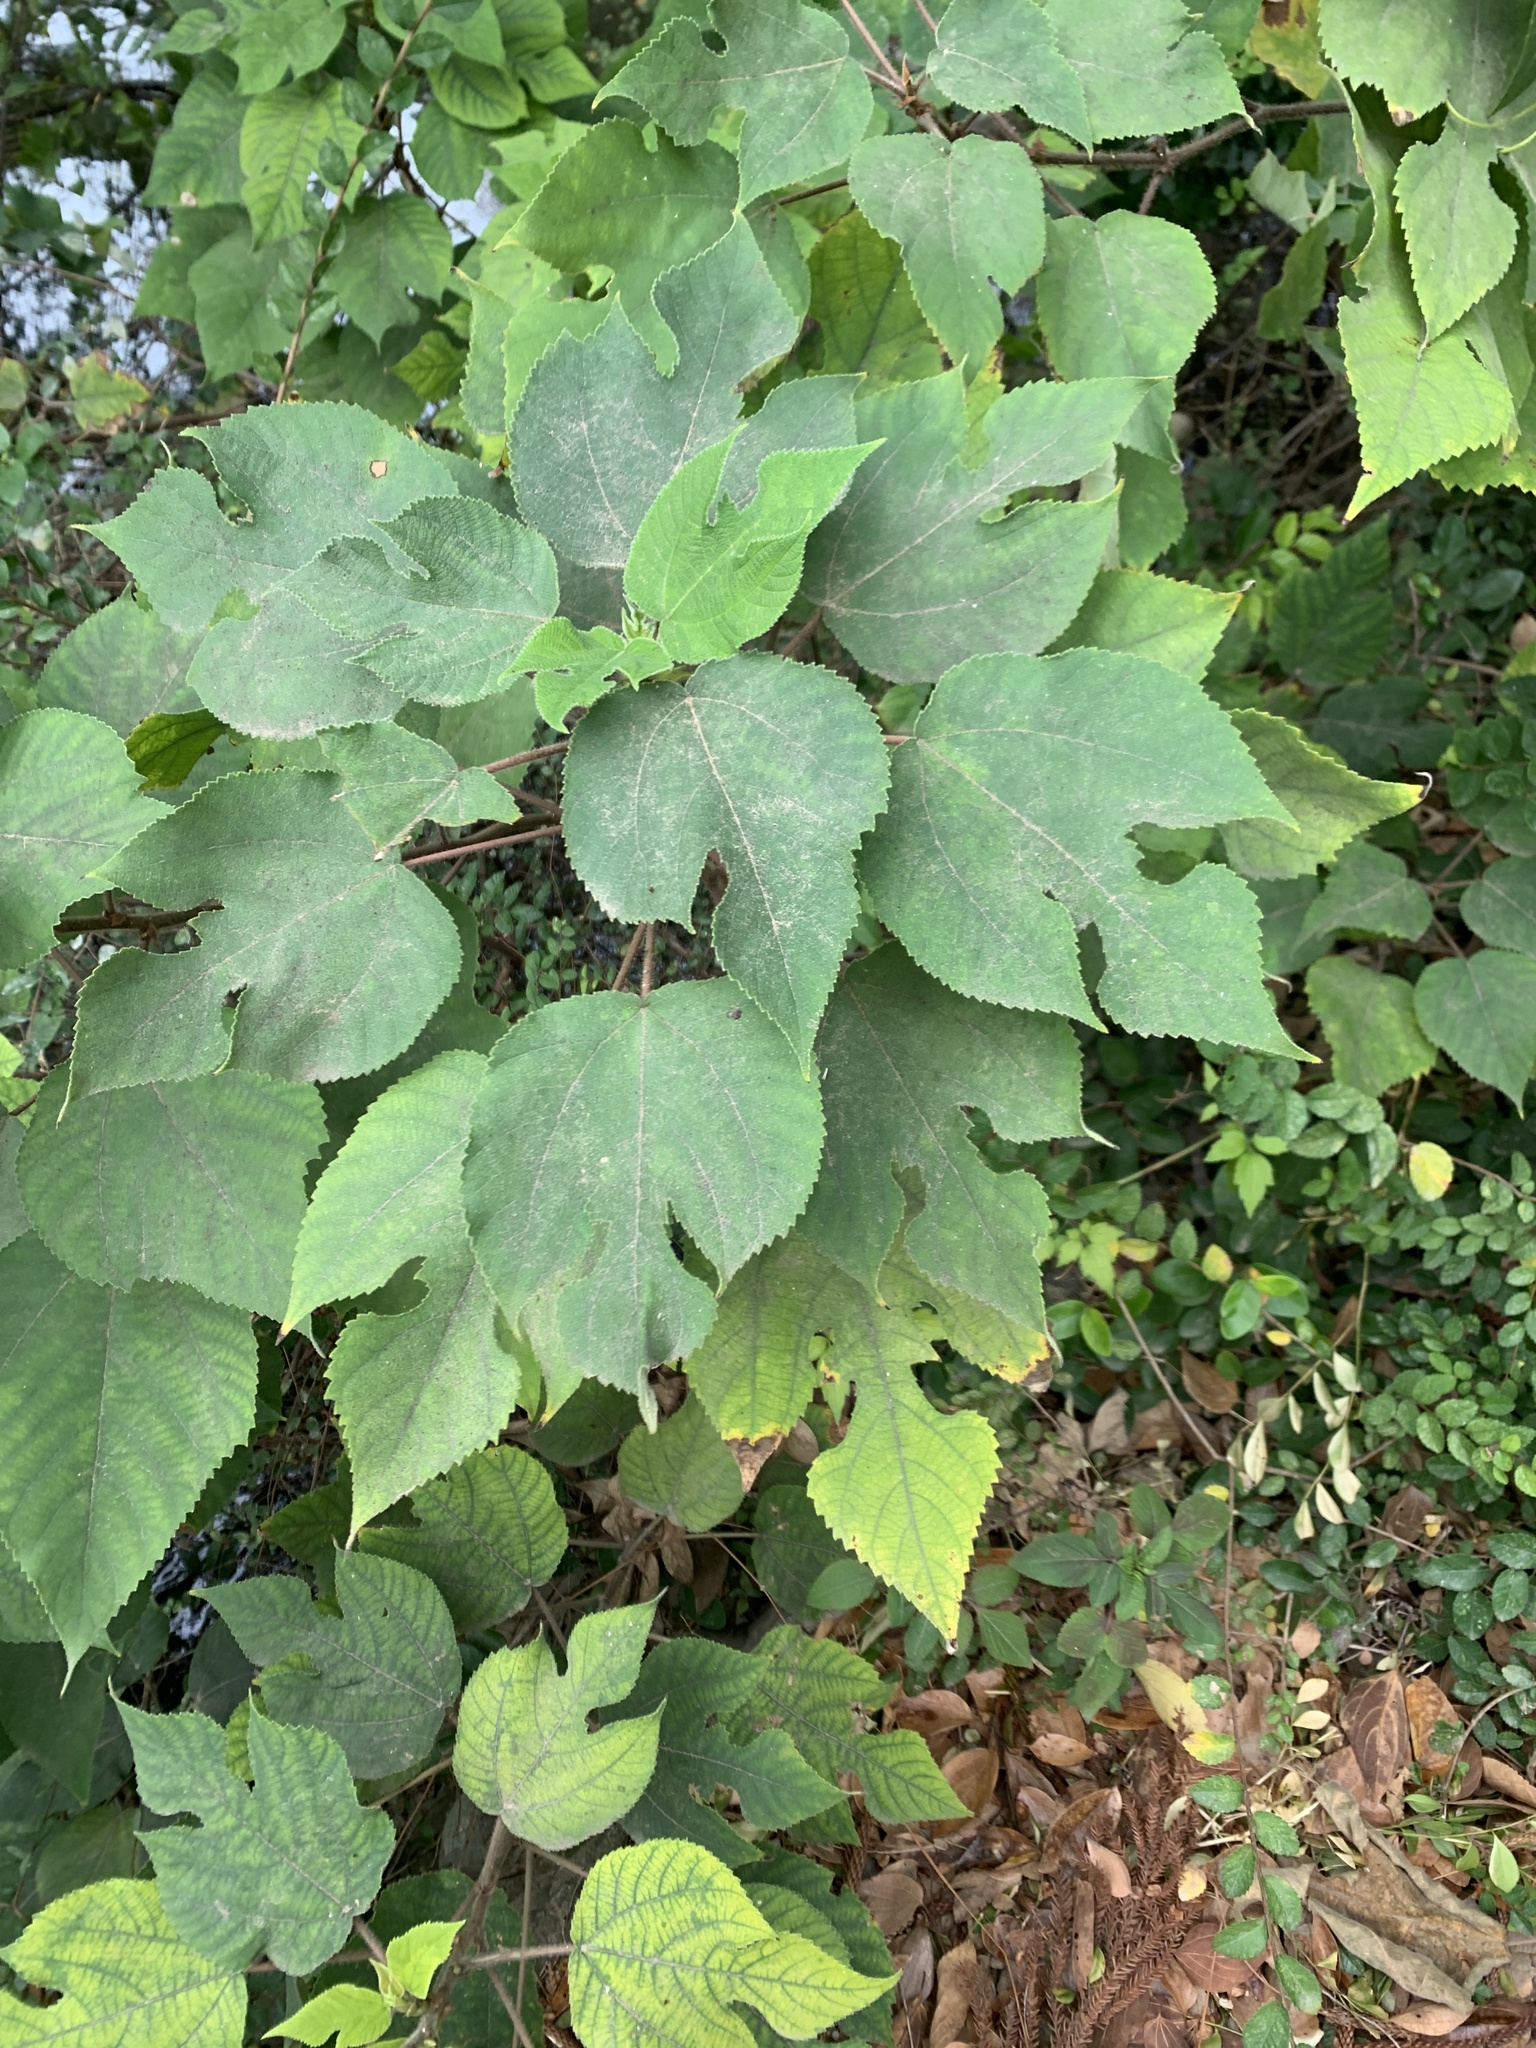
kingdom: Plantae
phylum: Tracheophyta
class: Magnoliopsida
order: Rosales
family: Moraceae
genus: Broussonetia
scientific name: Broussonetia papyrifera
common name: Paper mulberry
